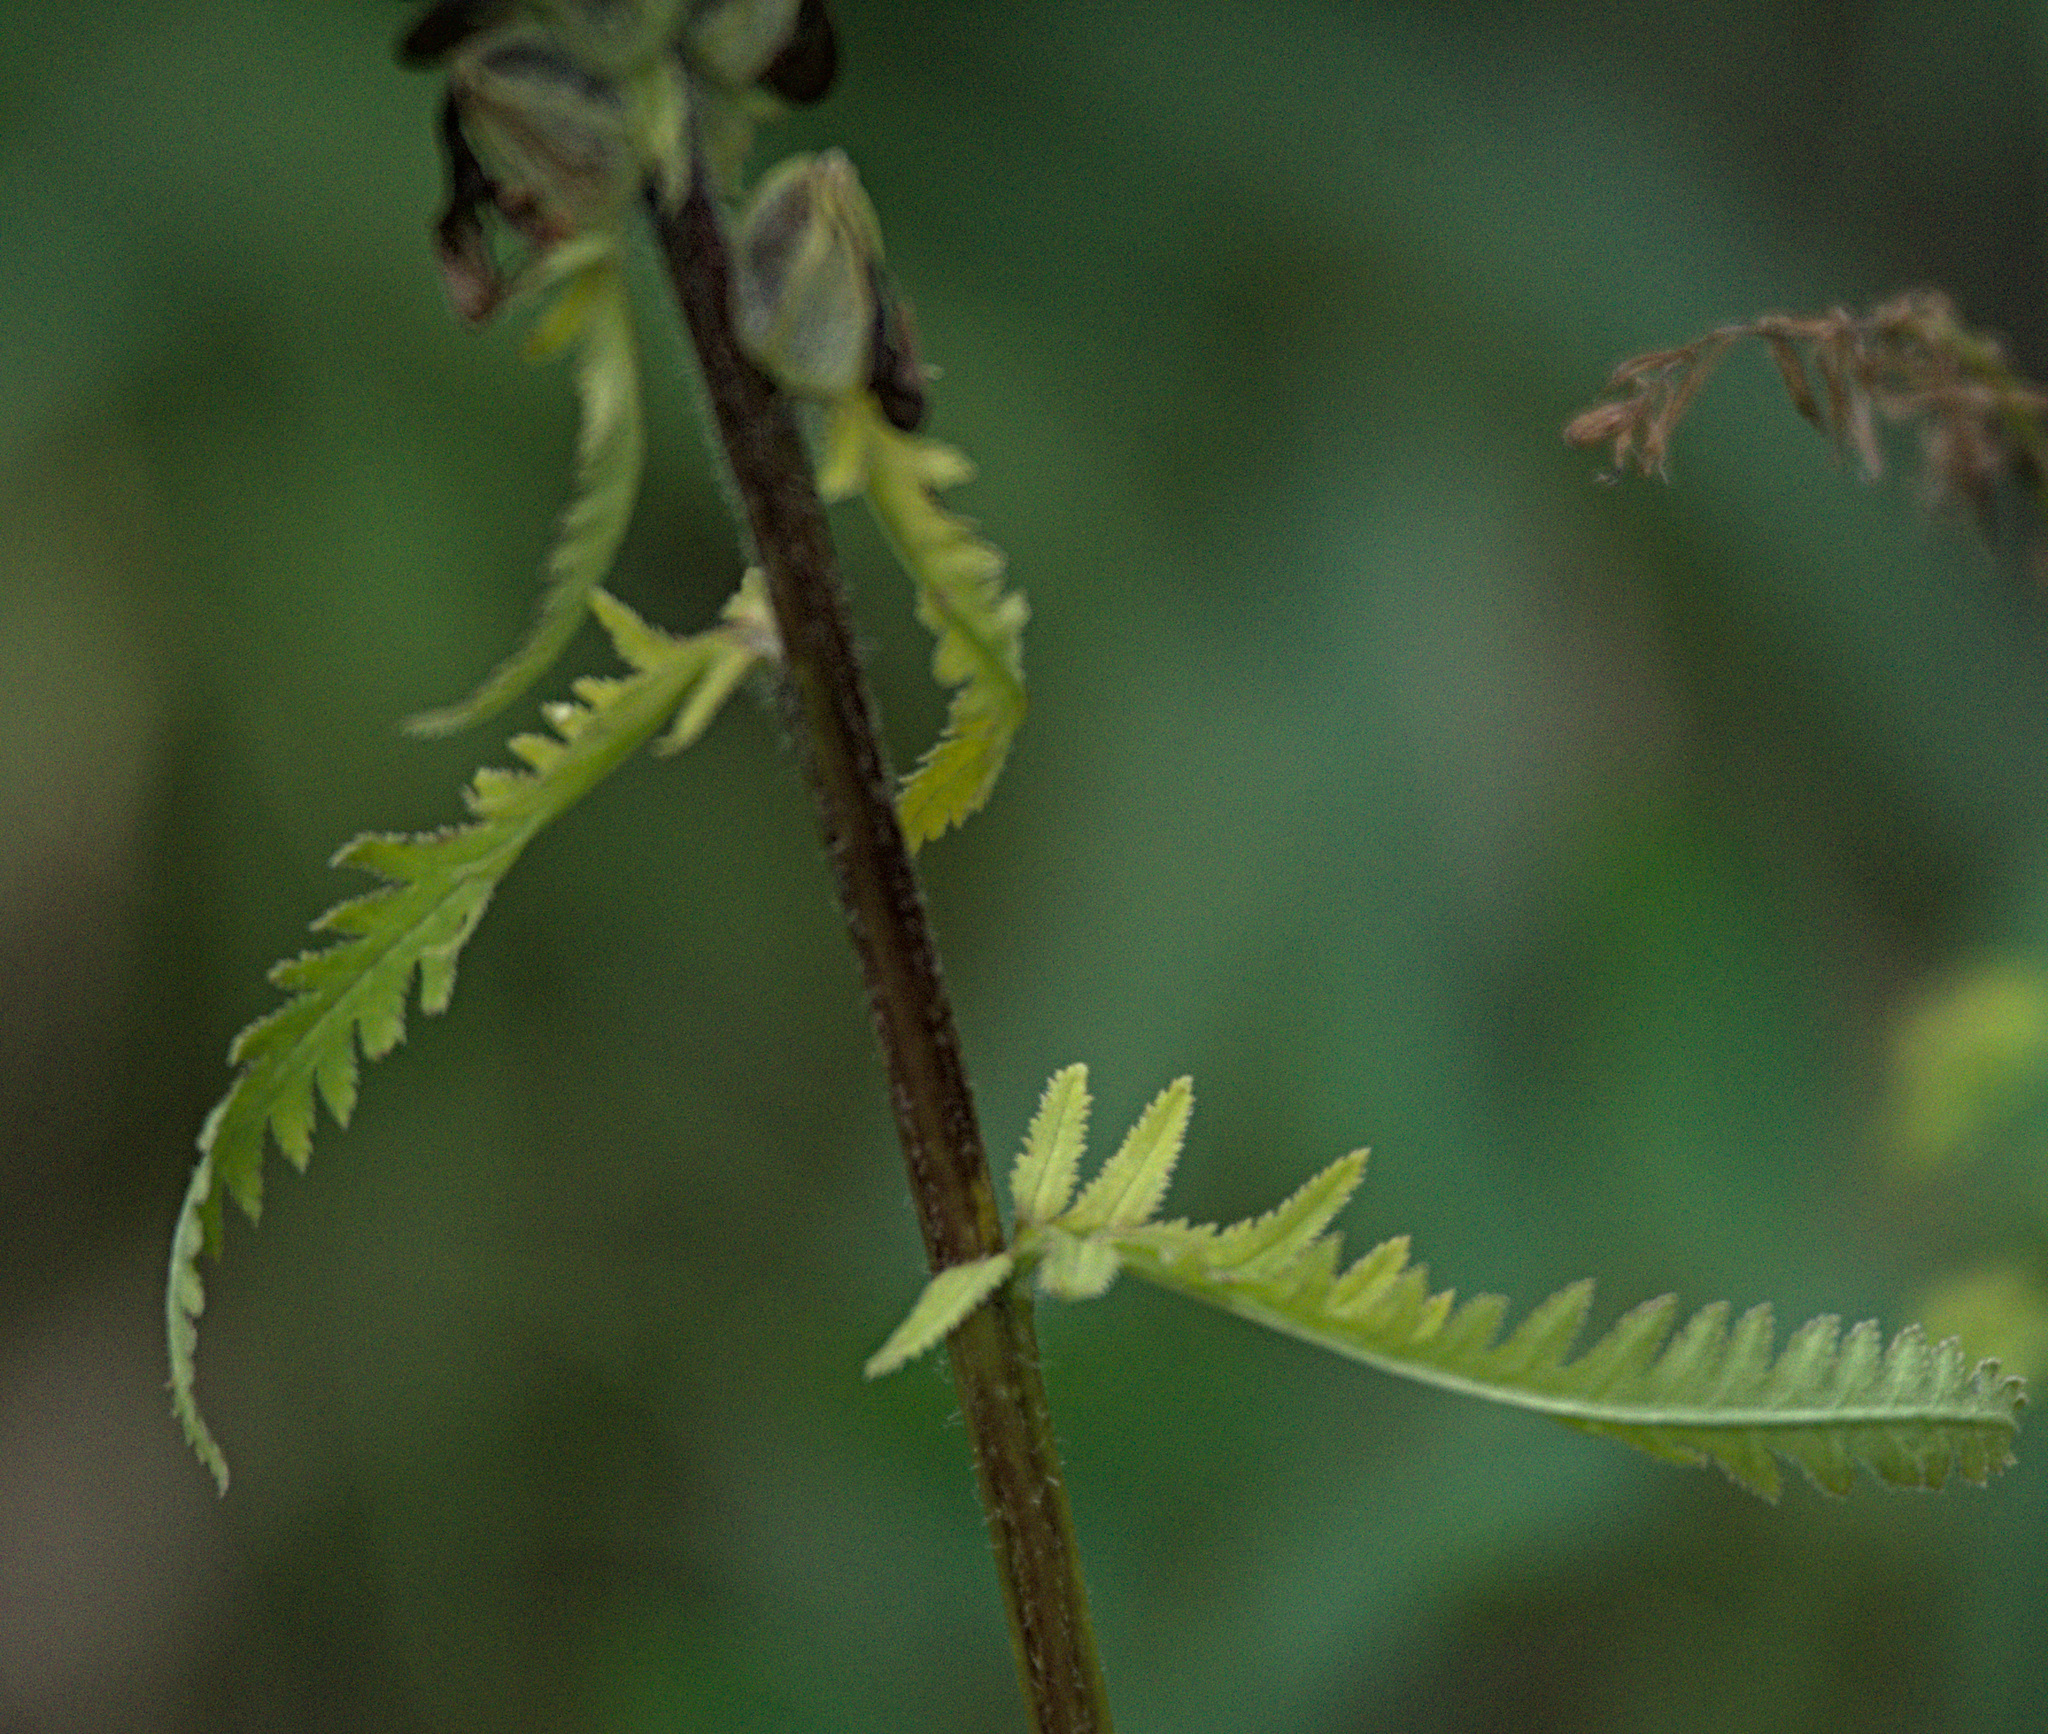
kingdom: Plantae
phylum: Tracheophyta
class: Magnoliopsida
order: Lamiales
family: Orobanchaceae
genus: Pedicularis
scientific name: Pedicularis compacta
